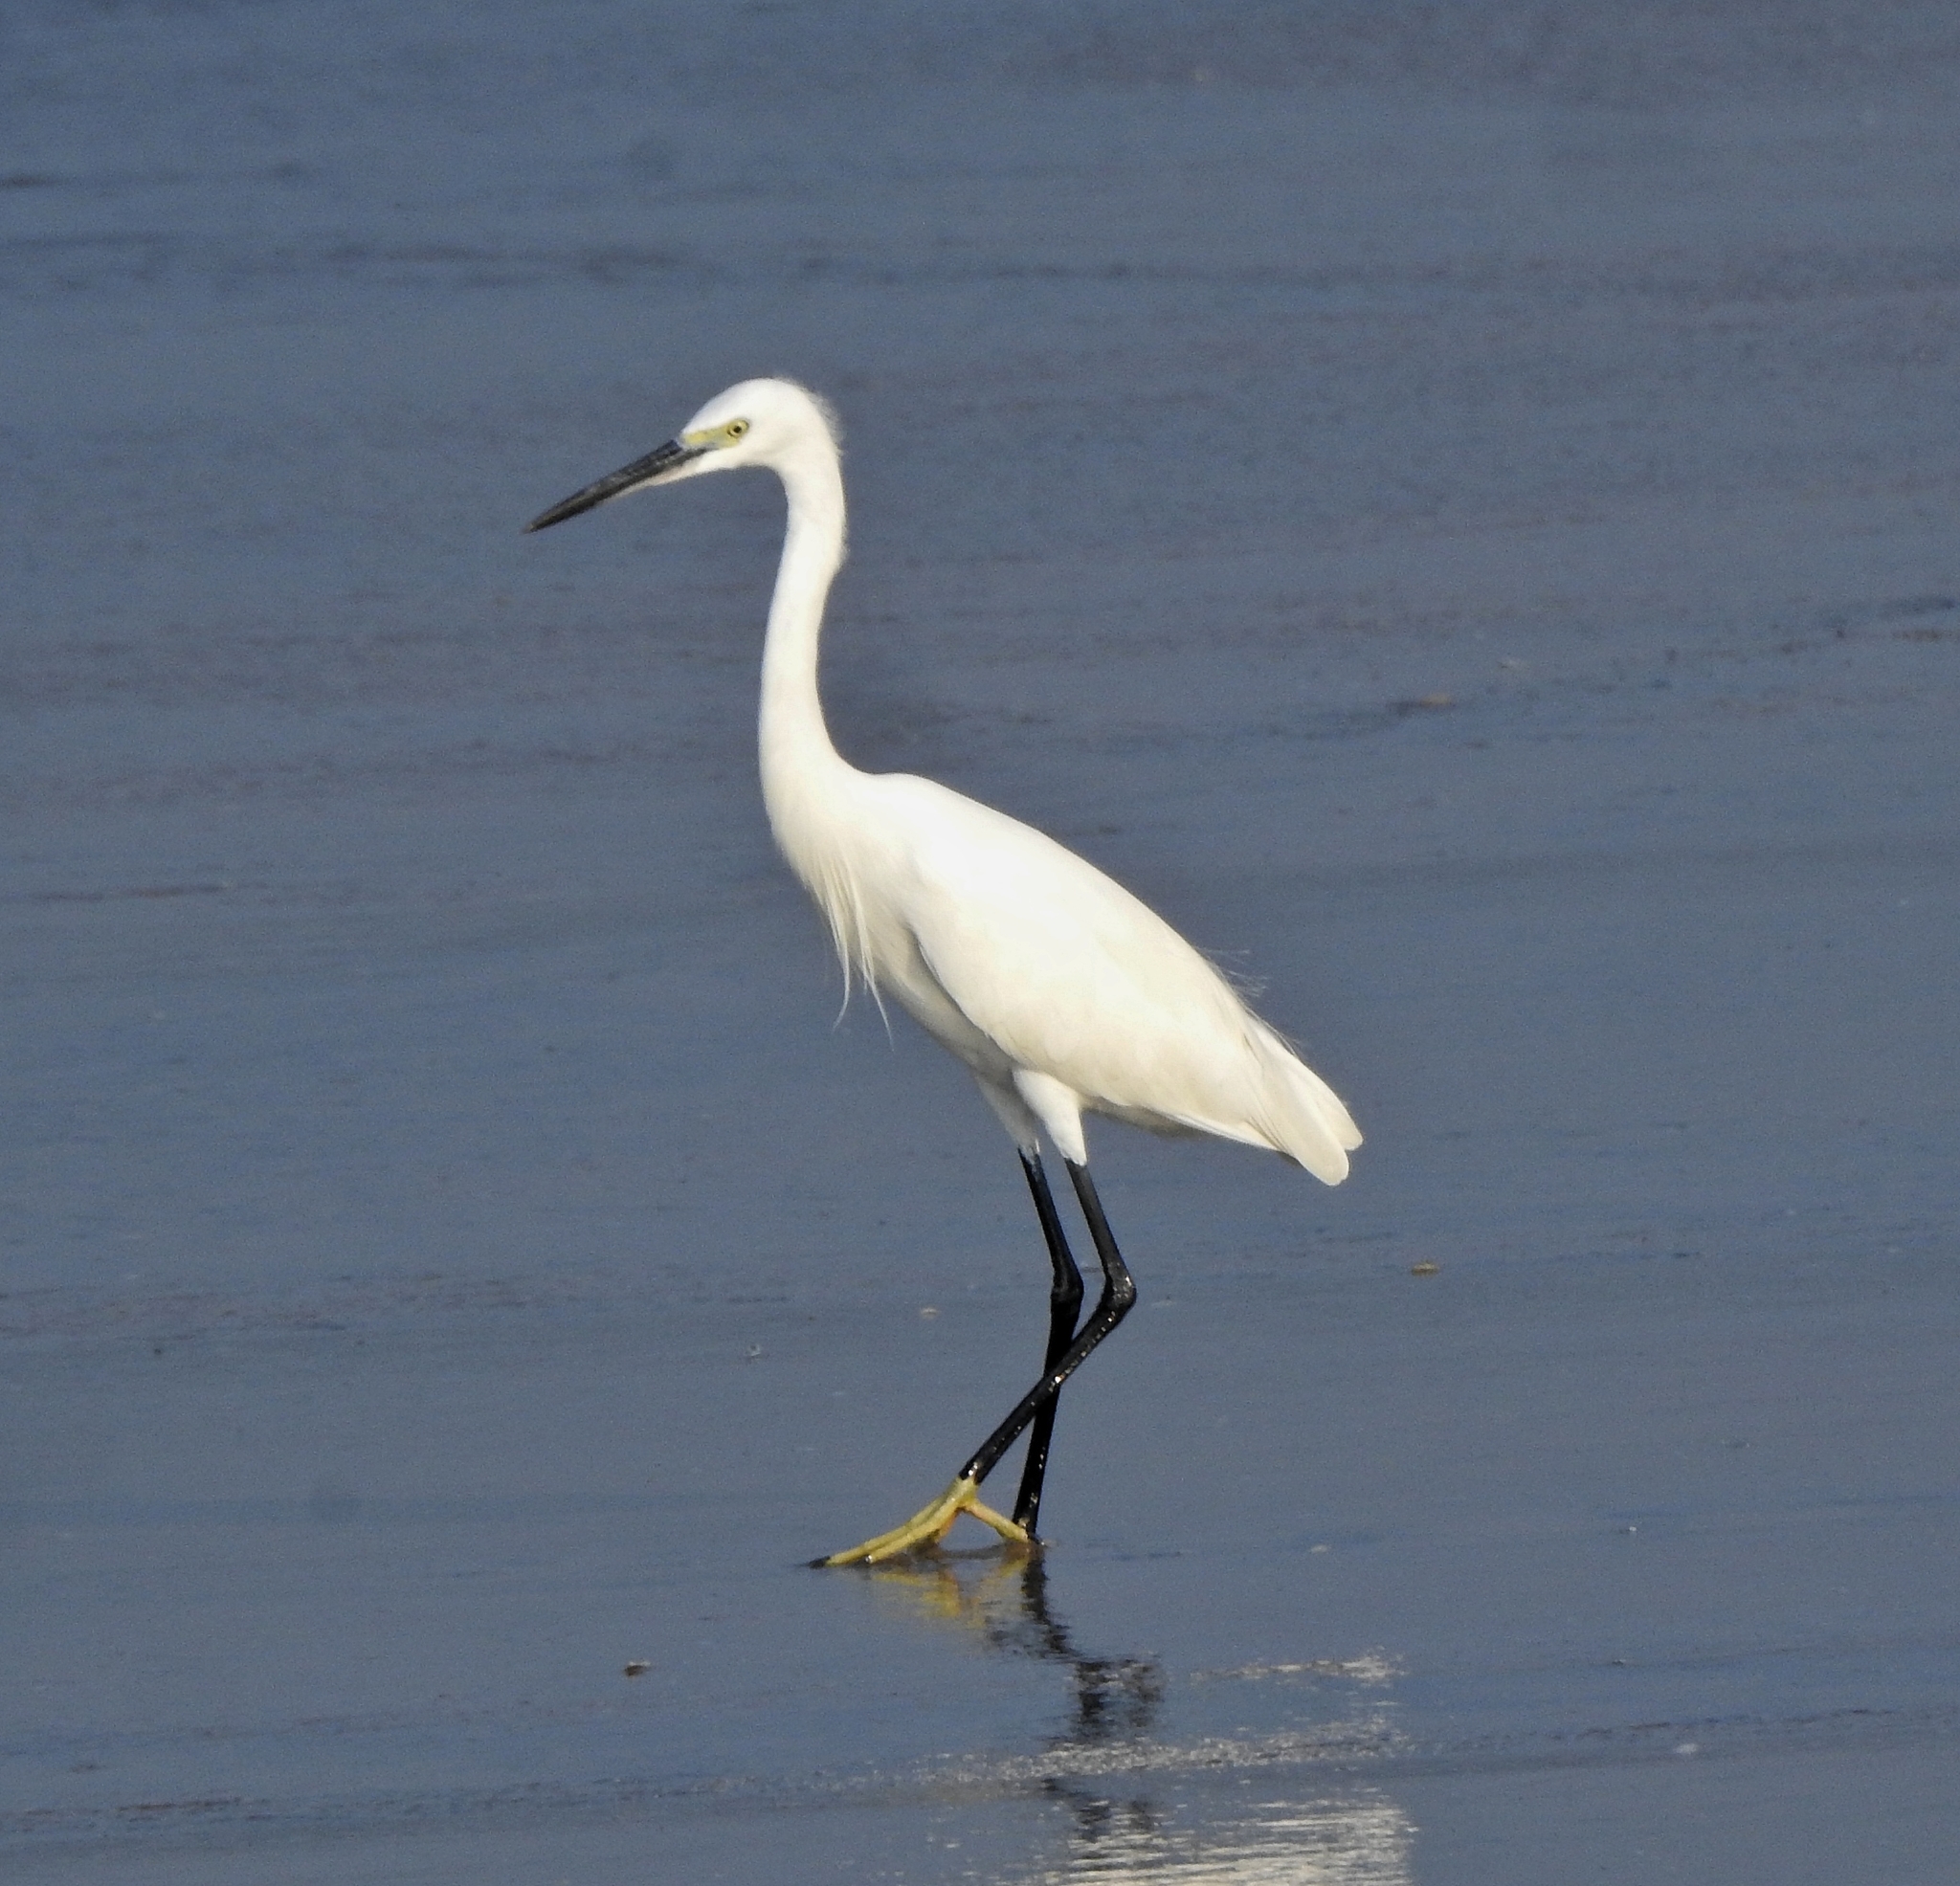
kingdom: Animalia
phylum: Chordata
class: Aves
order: Pelecaniformes
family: Ardeidae
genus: Egretta
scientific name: Egretta garzetta
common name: Little egret
